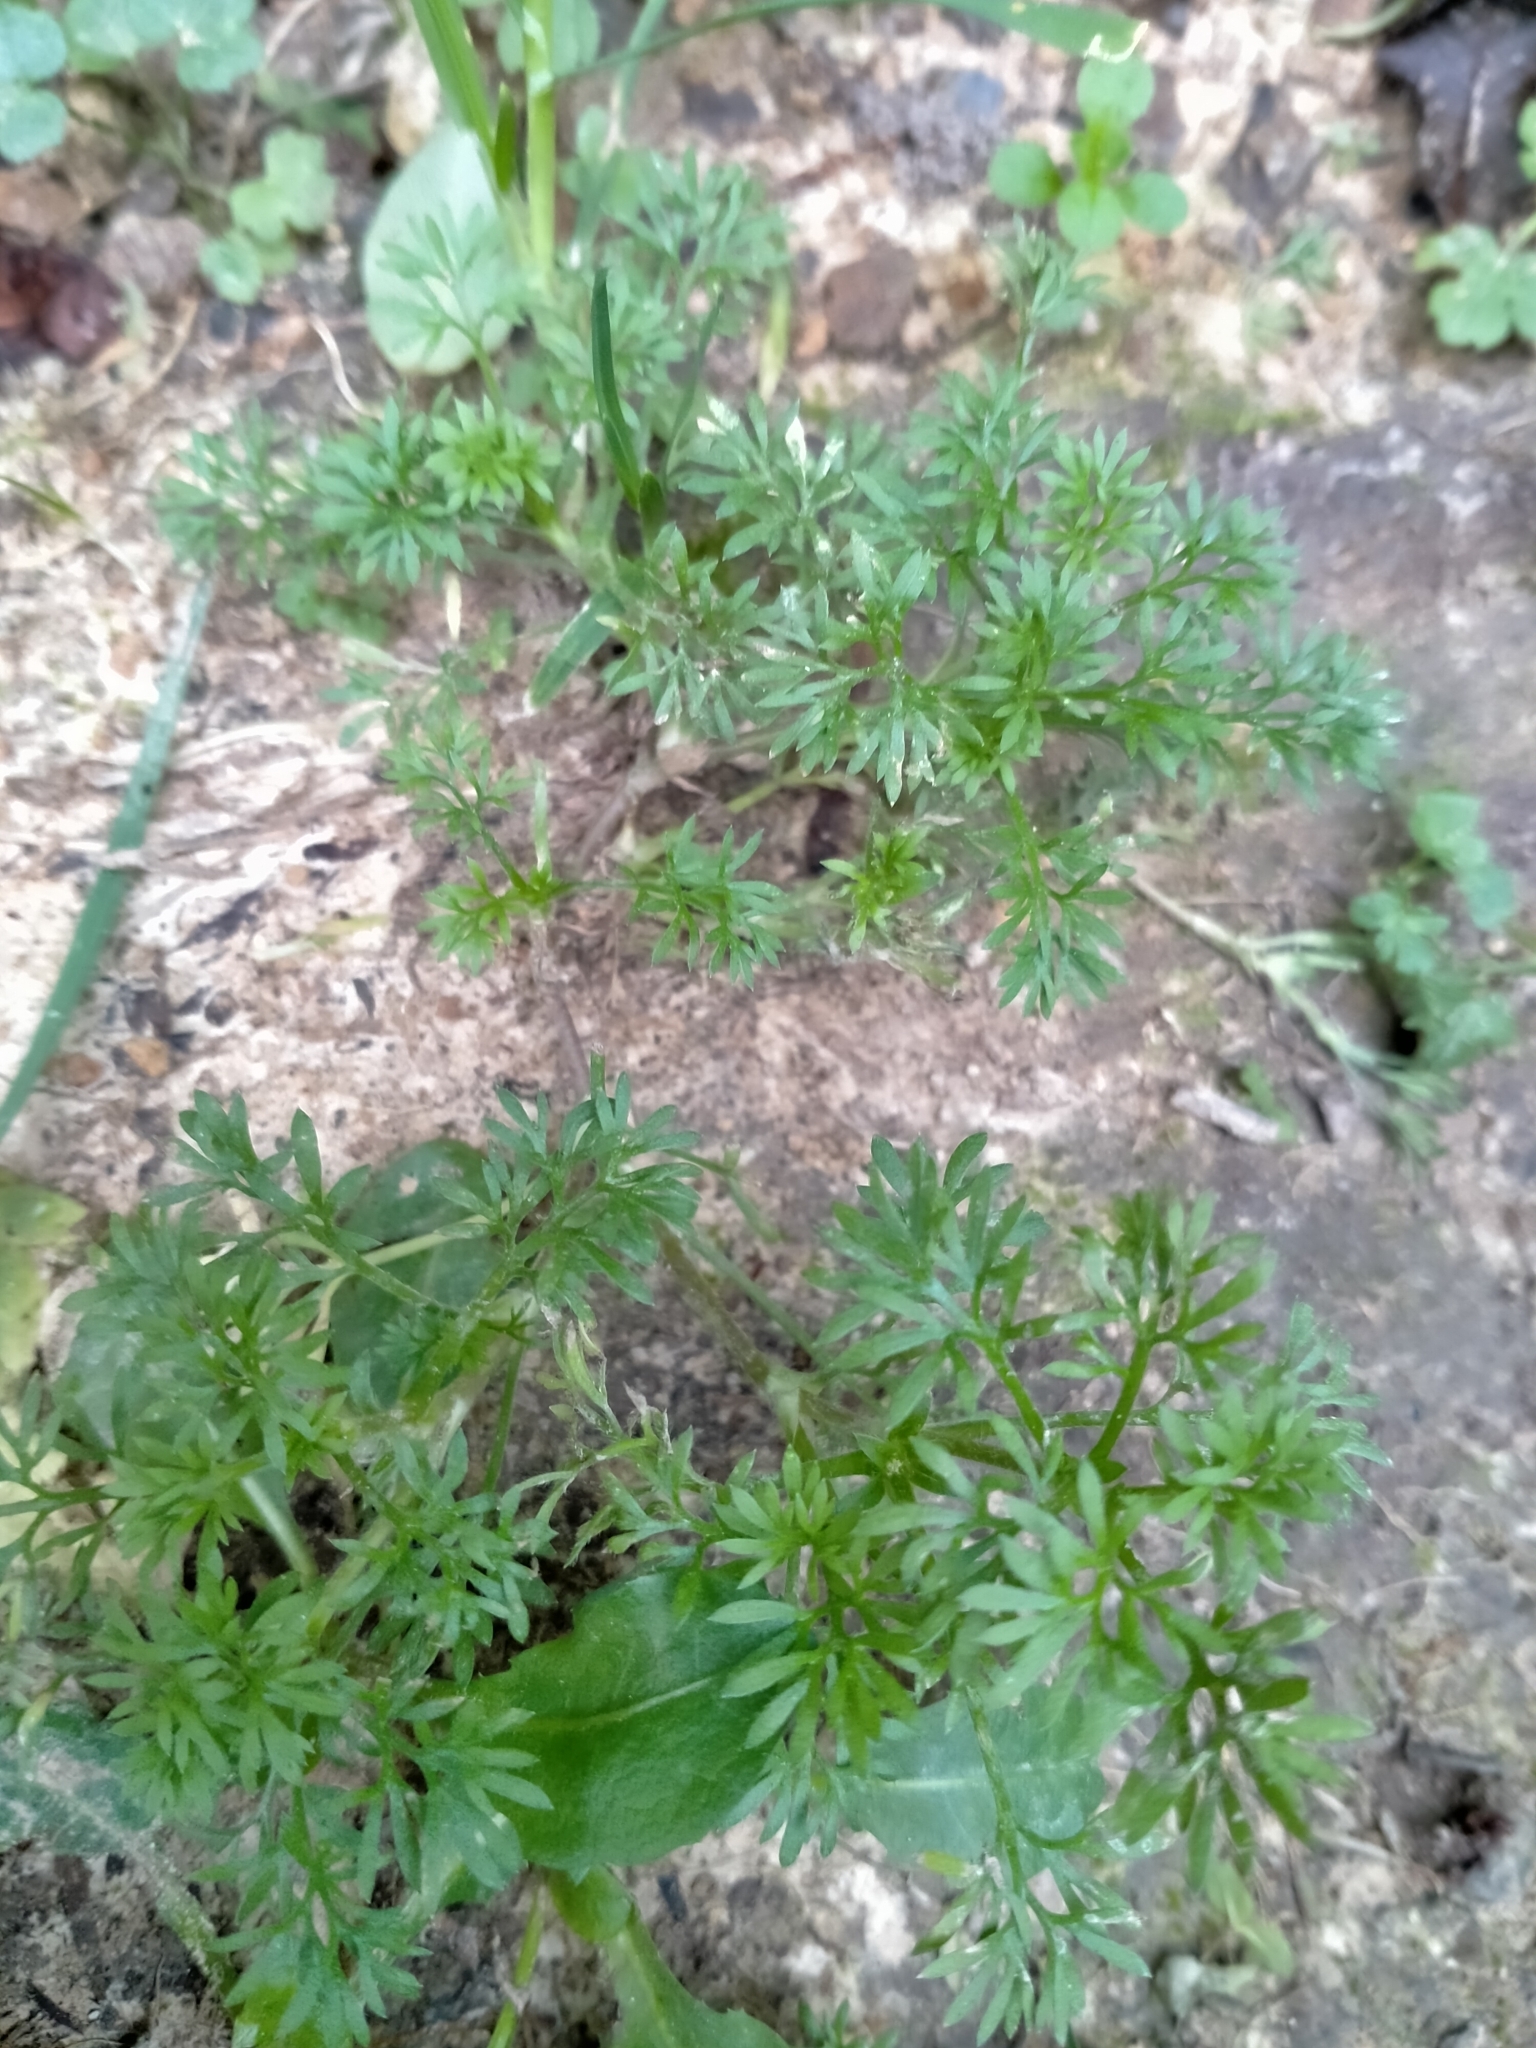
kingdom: Plantae
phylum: Tracheophyta
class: Magnoliopsida
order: Asterales
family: Asteraceae
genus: Soliva
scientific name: Soliva sessilis
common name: Field burrweed
